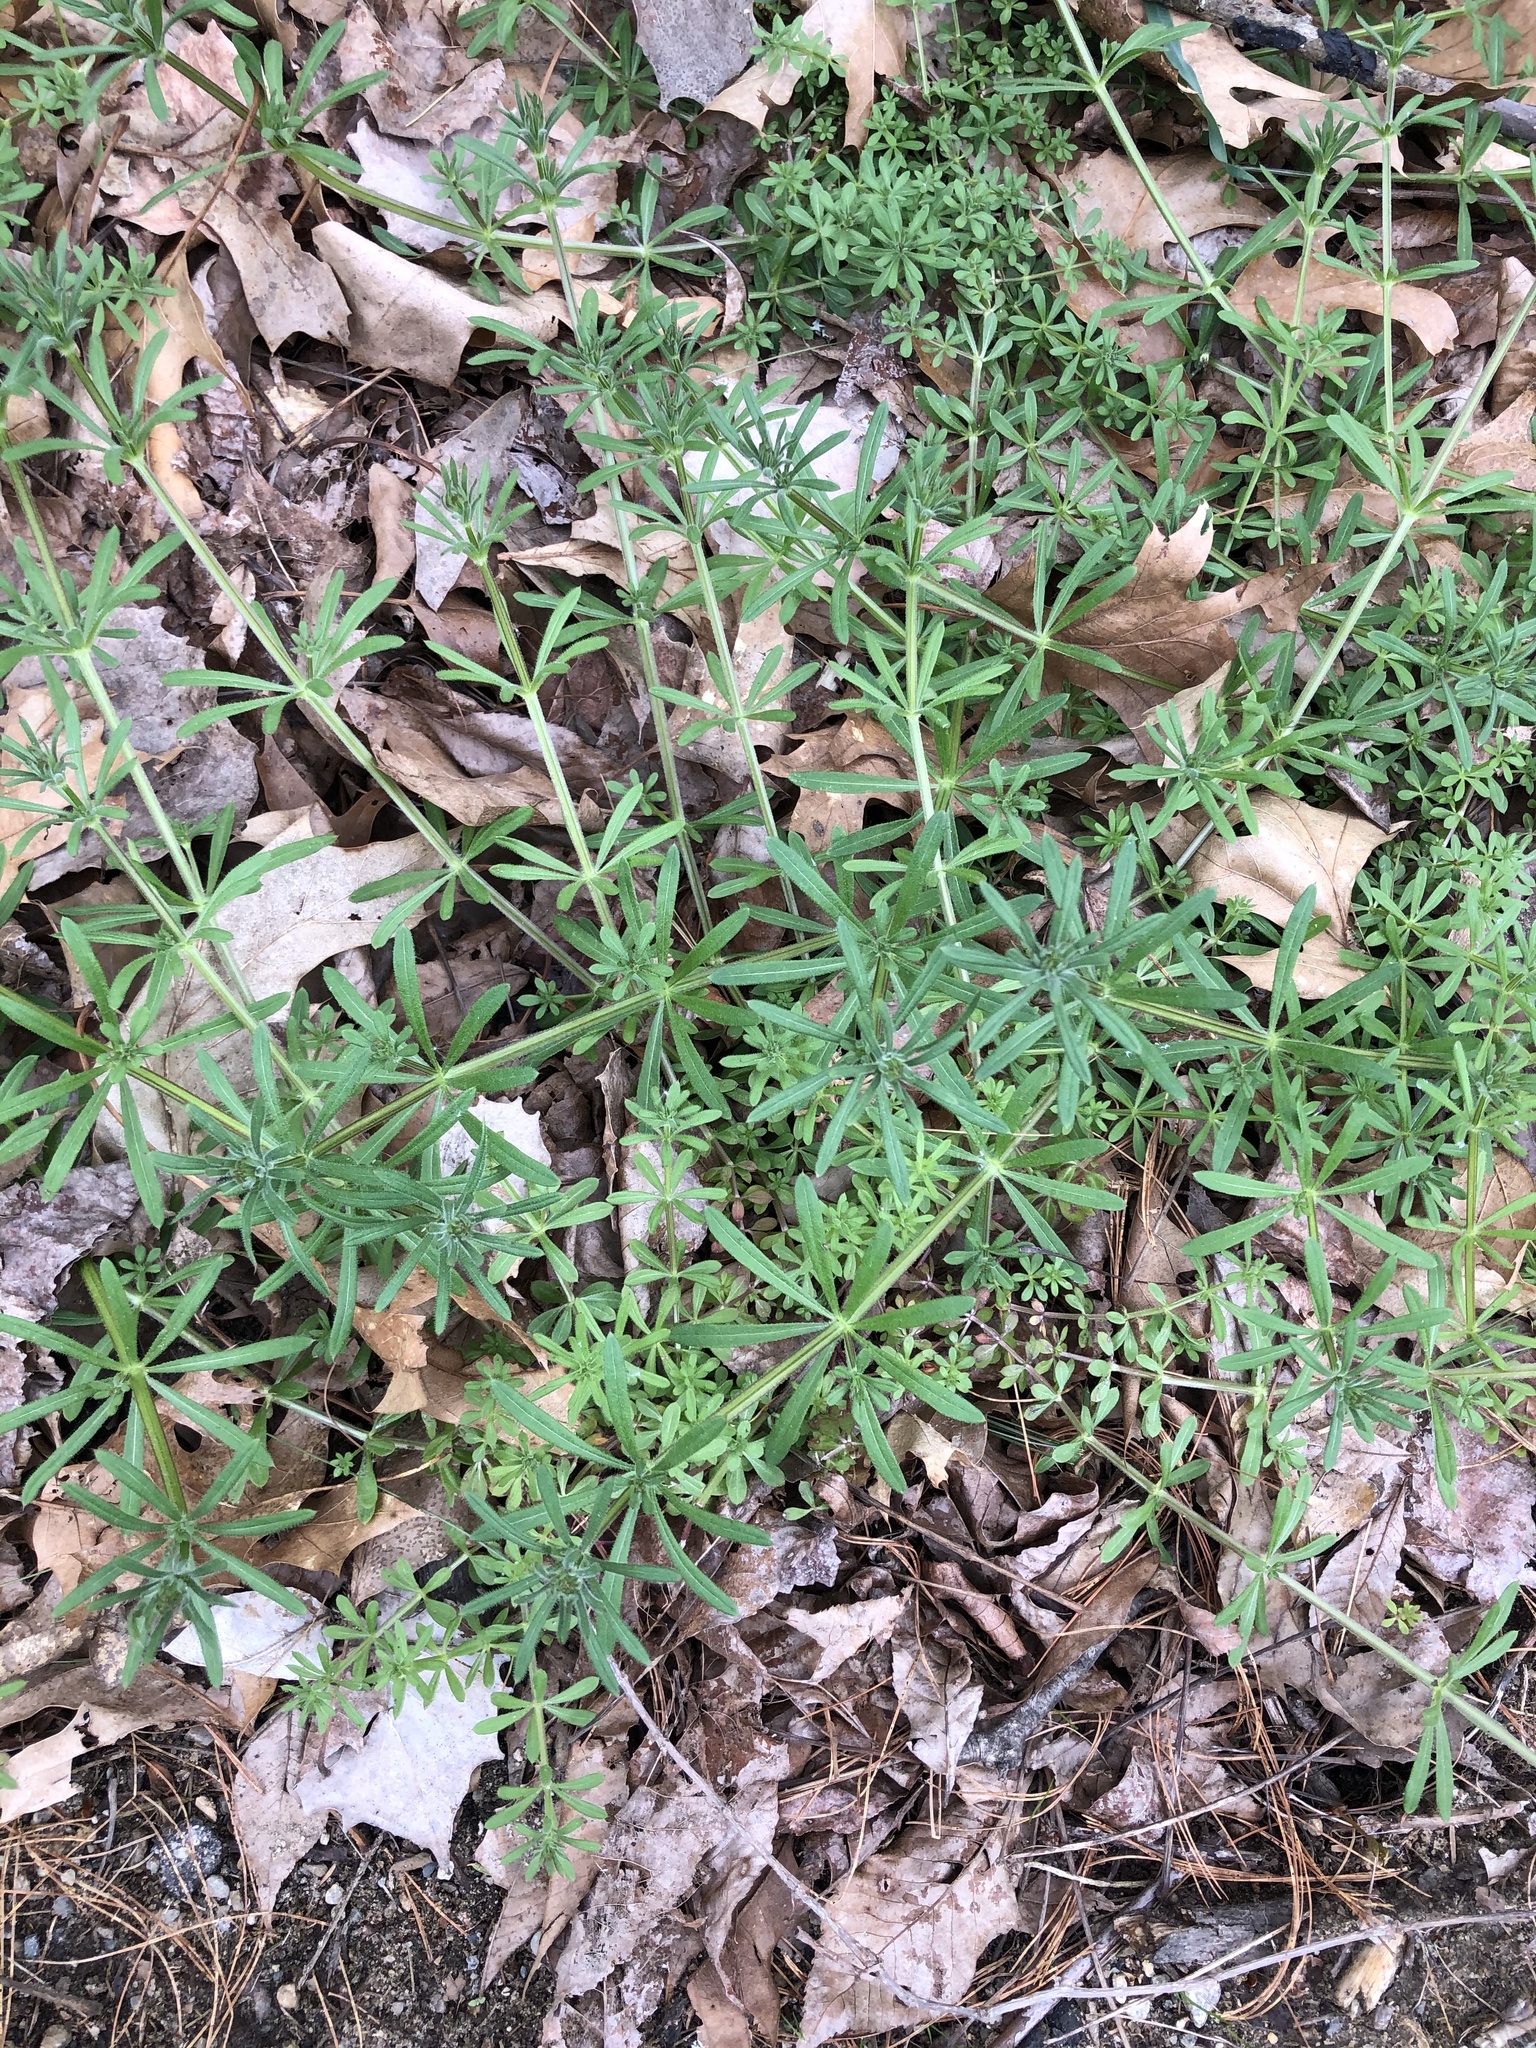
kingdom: Plantae
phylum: Tracheophyta
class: Magnoliopsida
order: Gentianales
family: Rubiaceae
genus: Galium
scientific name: Galium aparine
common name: Cleavers
